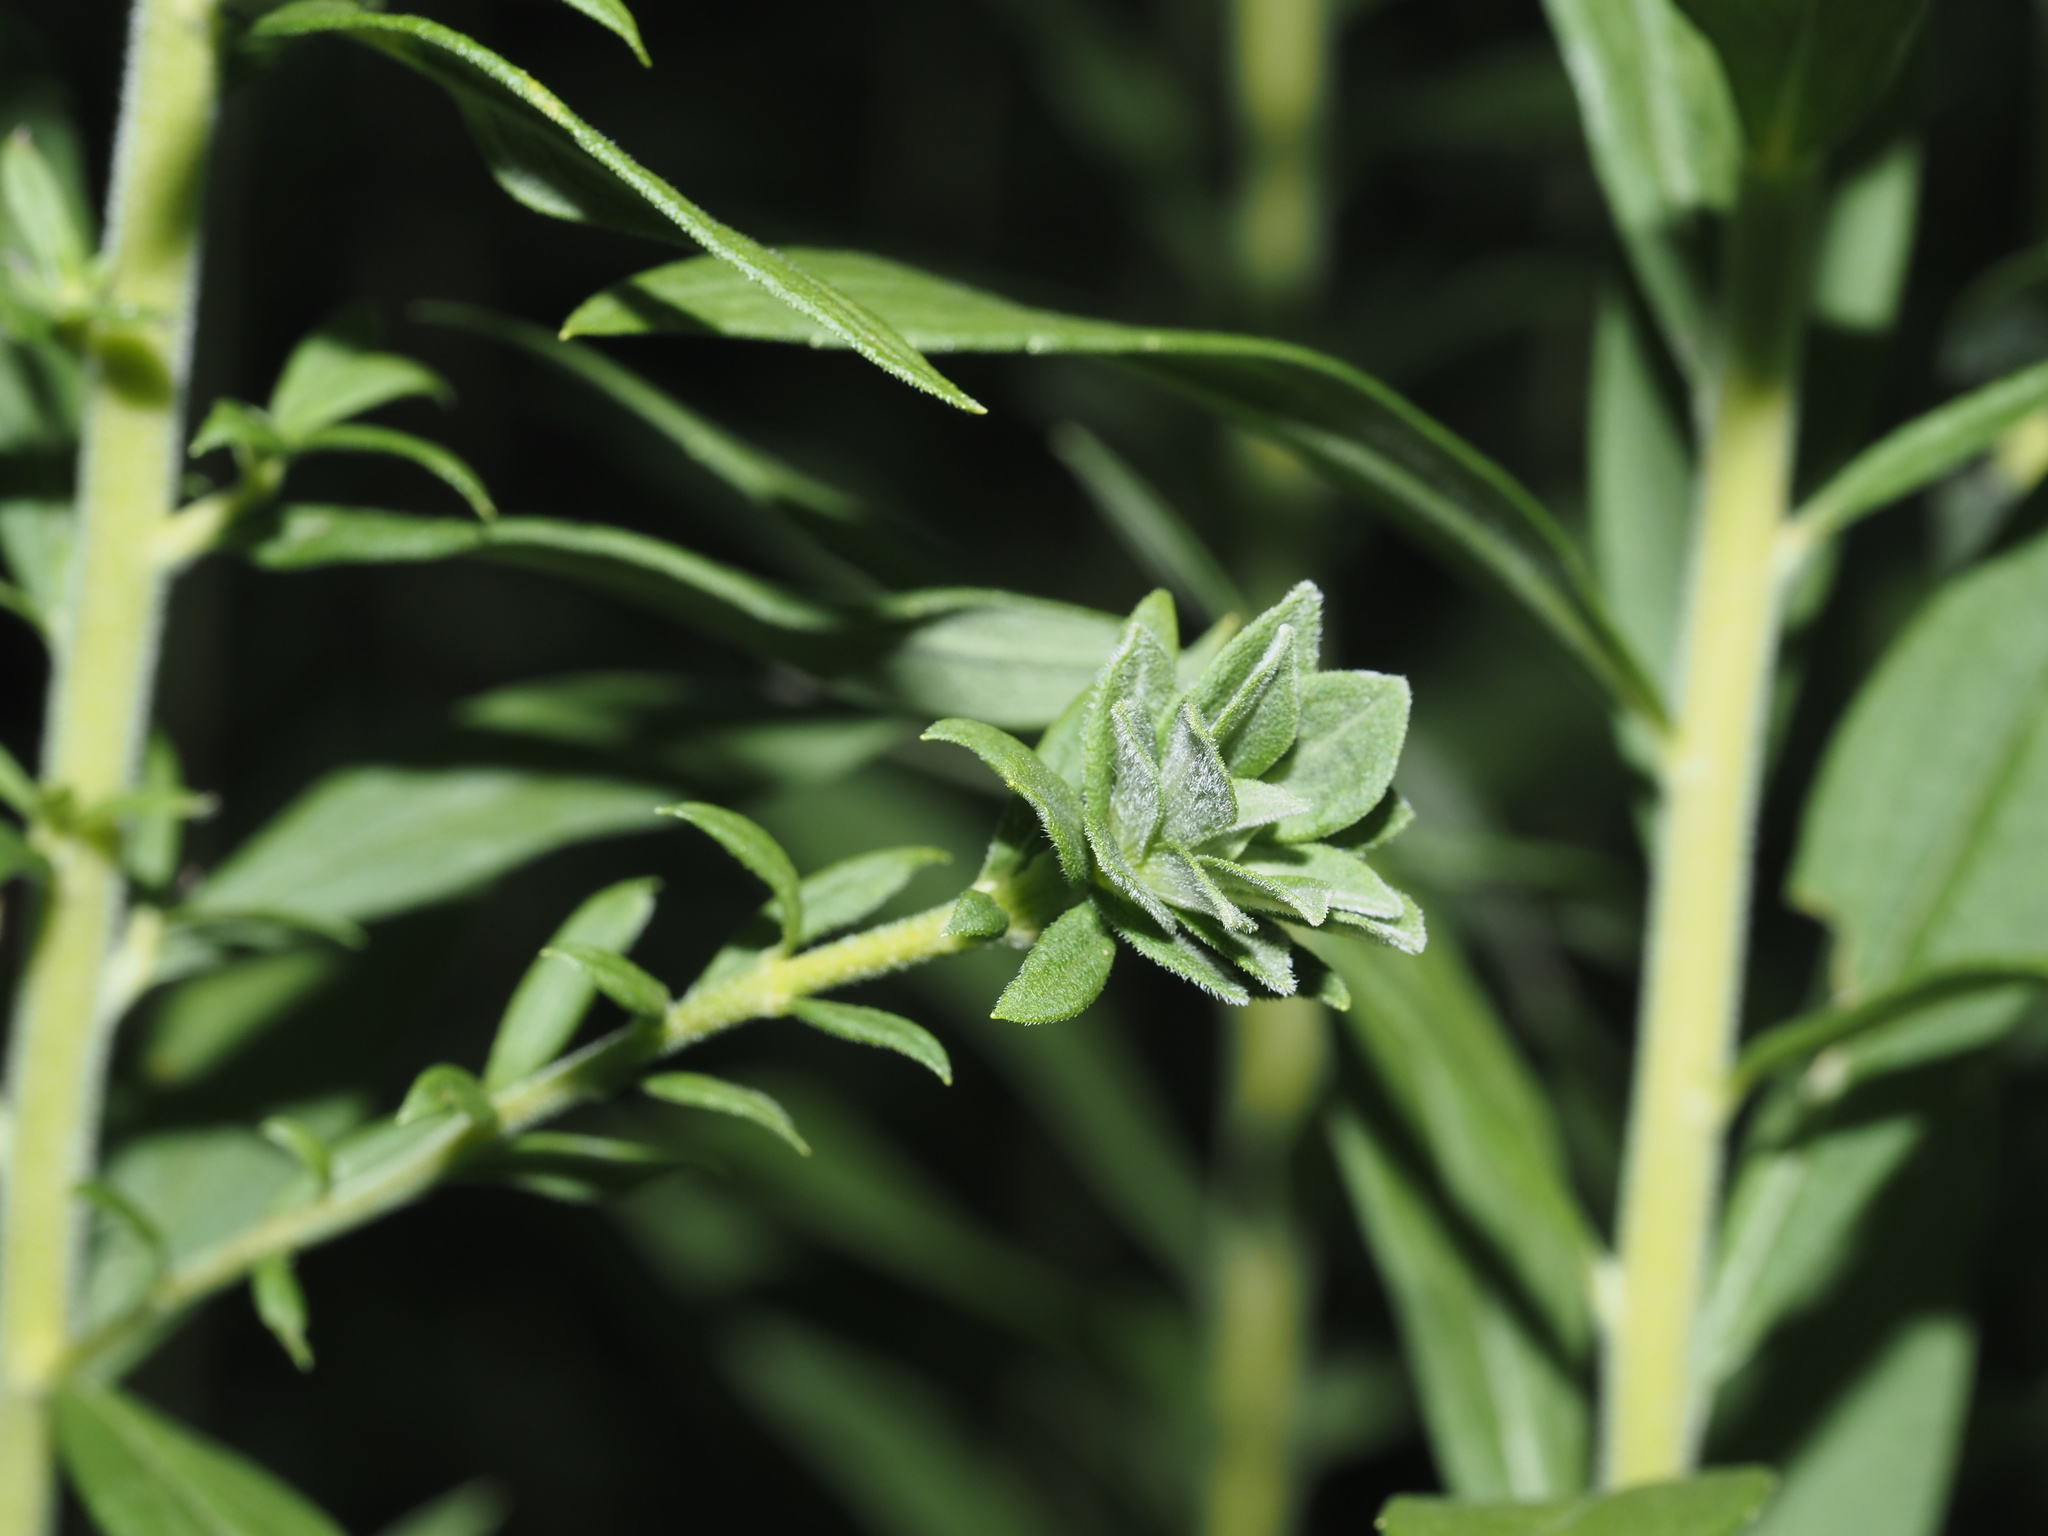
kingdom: Animalia
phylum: Arthropoda
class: Insecta
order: Diptera
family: Cecidomyiidae
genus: Asphondylia
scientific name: Asphondylia solidaginis
